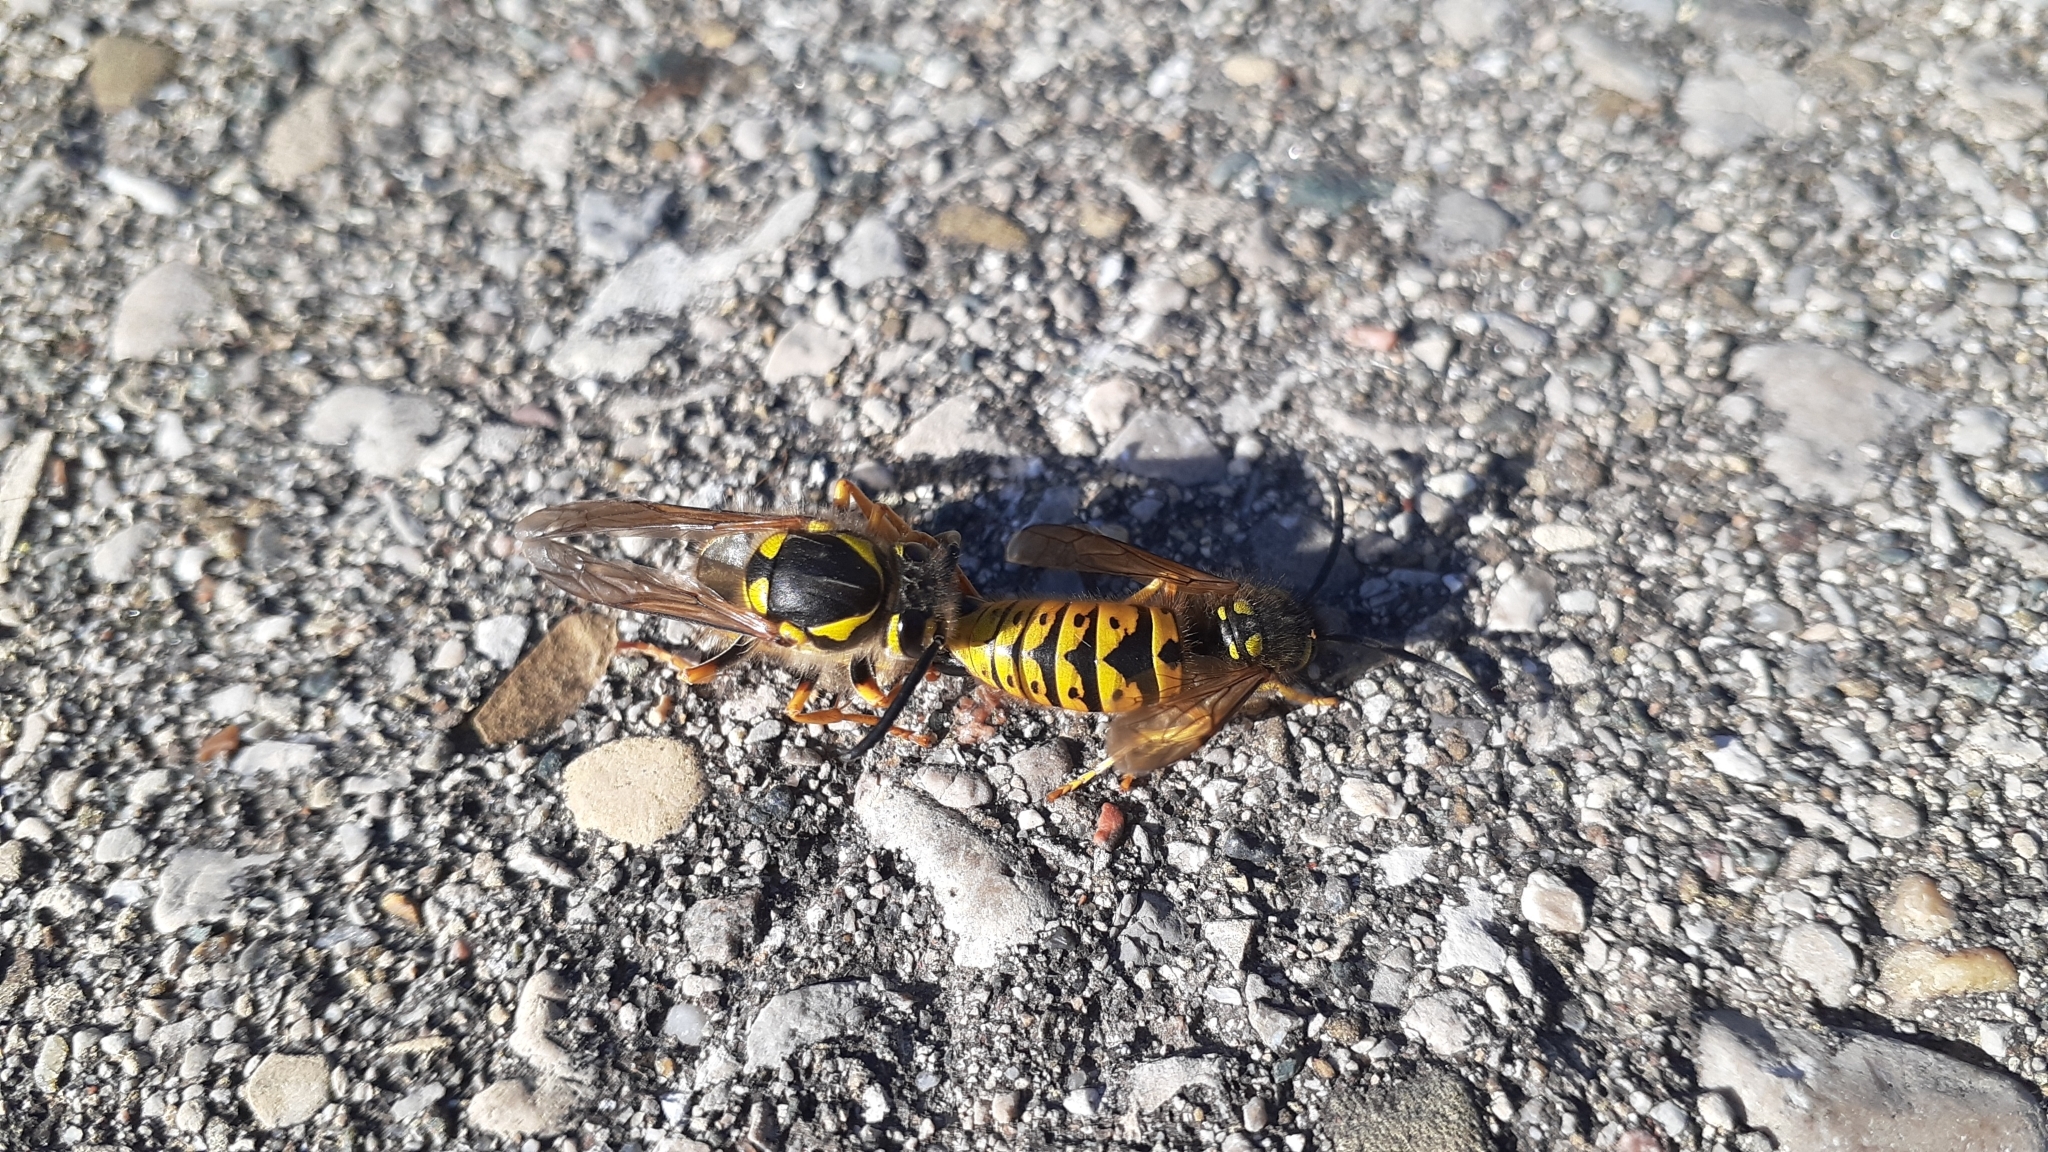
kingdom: Animalia
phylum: Arthropoda
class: Insecta
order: Hymenoptera
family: Vespidae
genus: Vespula
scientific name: Vespula germanica
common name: German wasp
